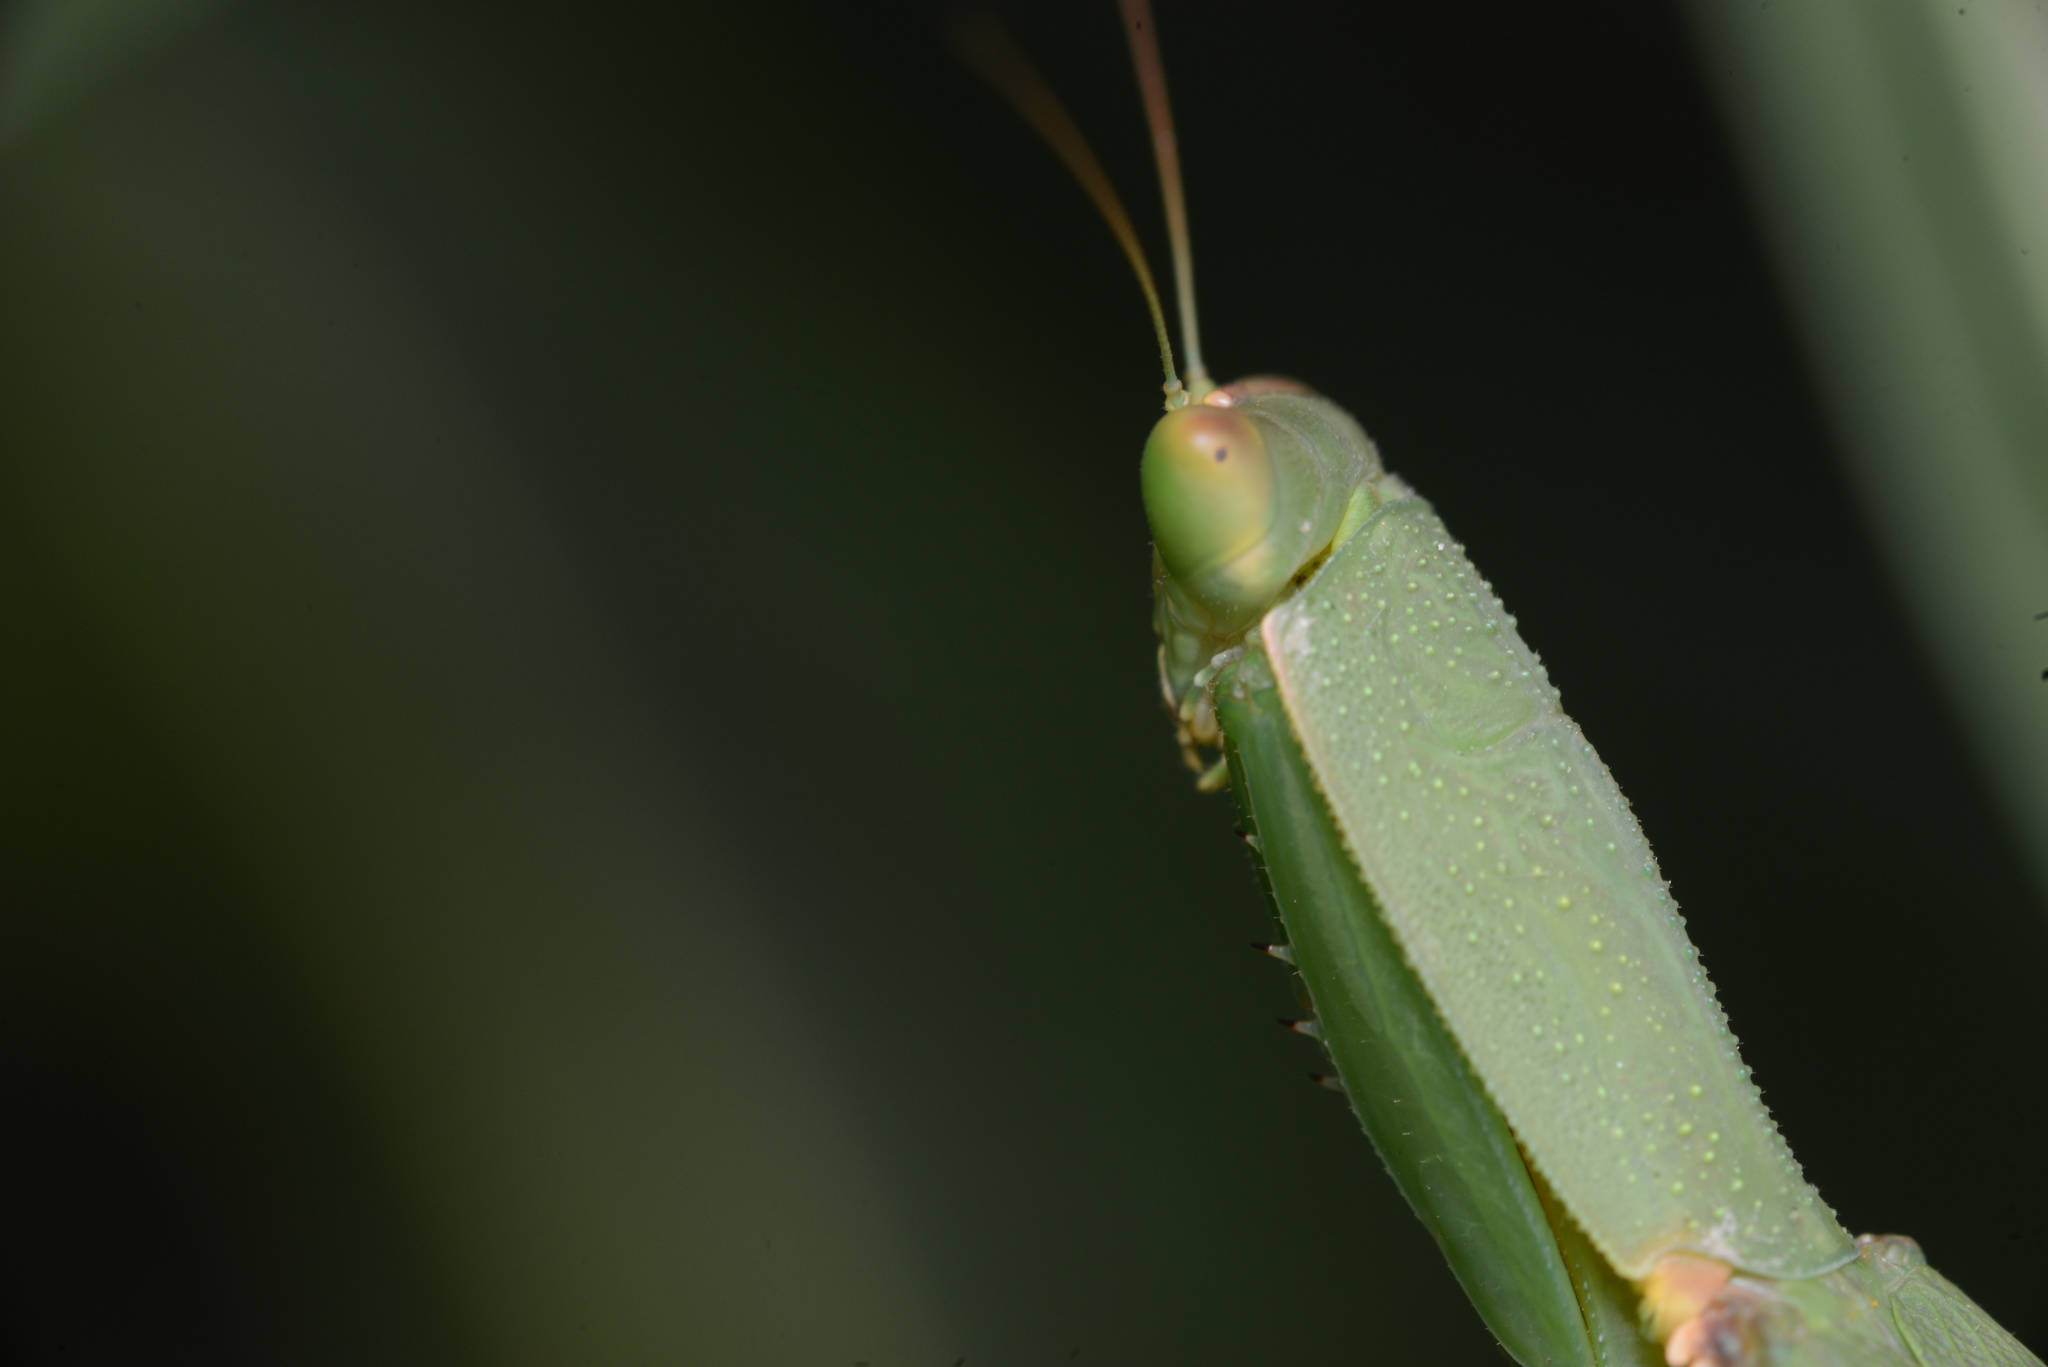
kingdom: Animalia
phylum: Arthropoda
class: Insecta
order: Mantodea
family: Mantidae
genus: Orthodera
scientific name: Orthodera novaezealandiae
